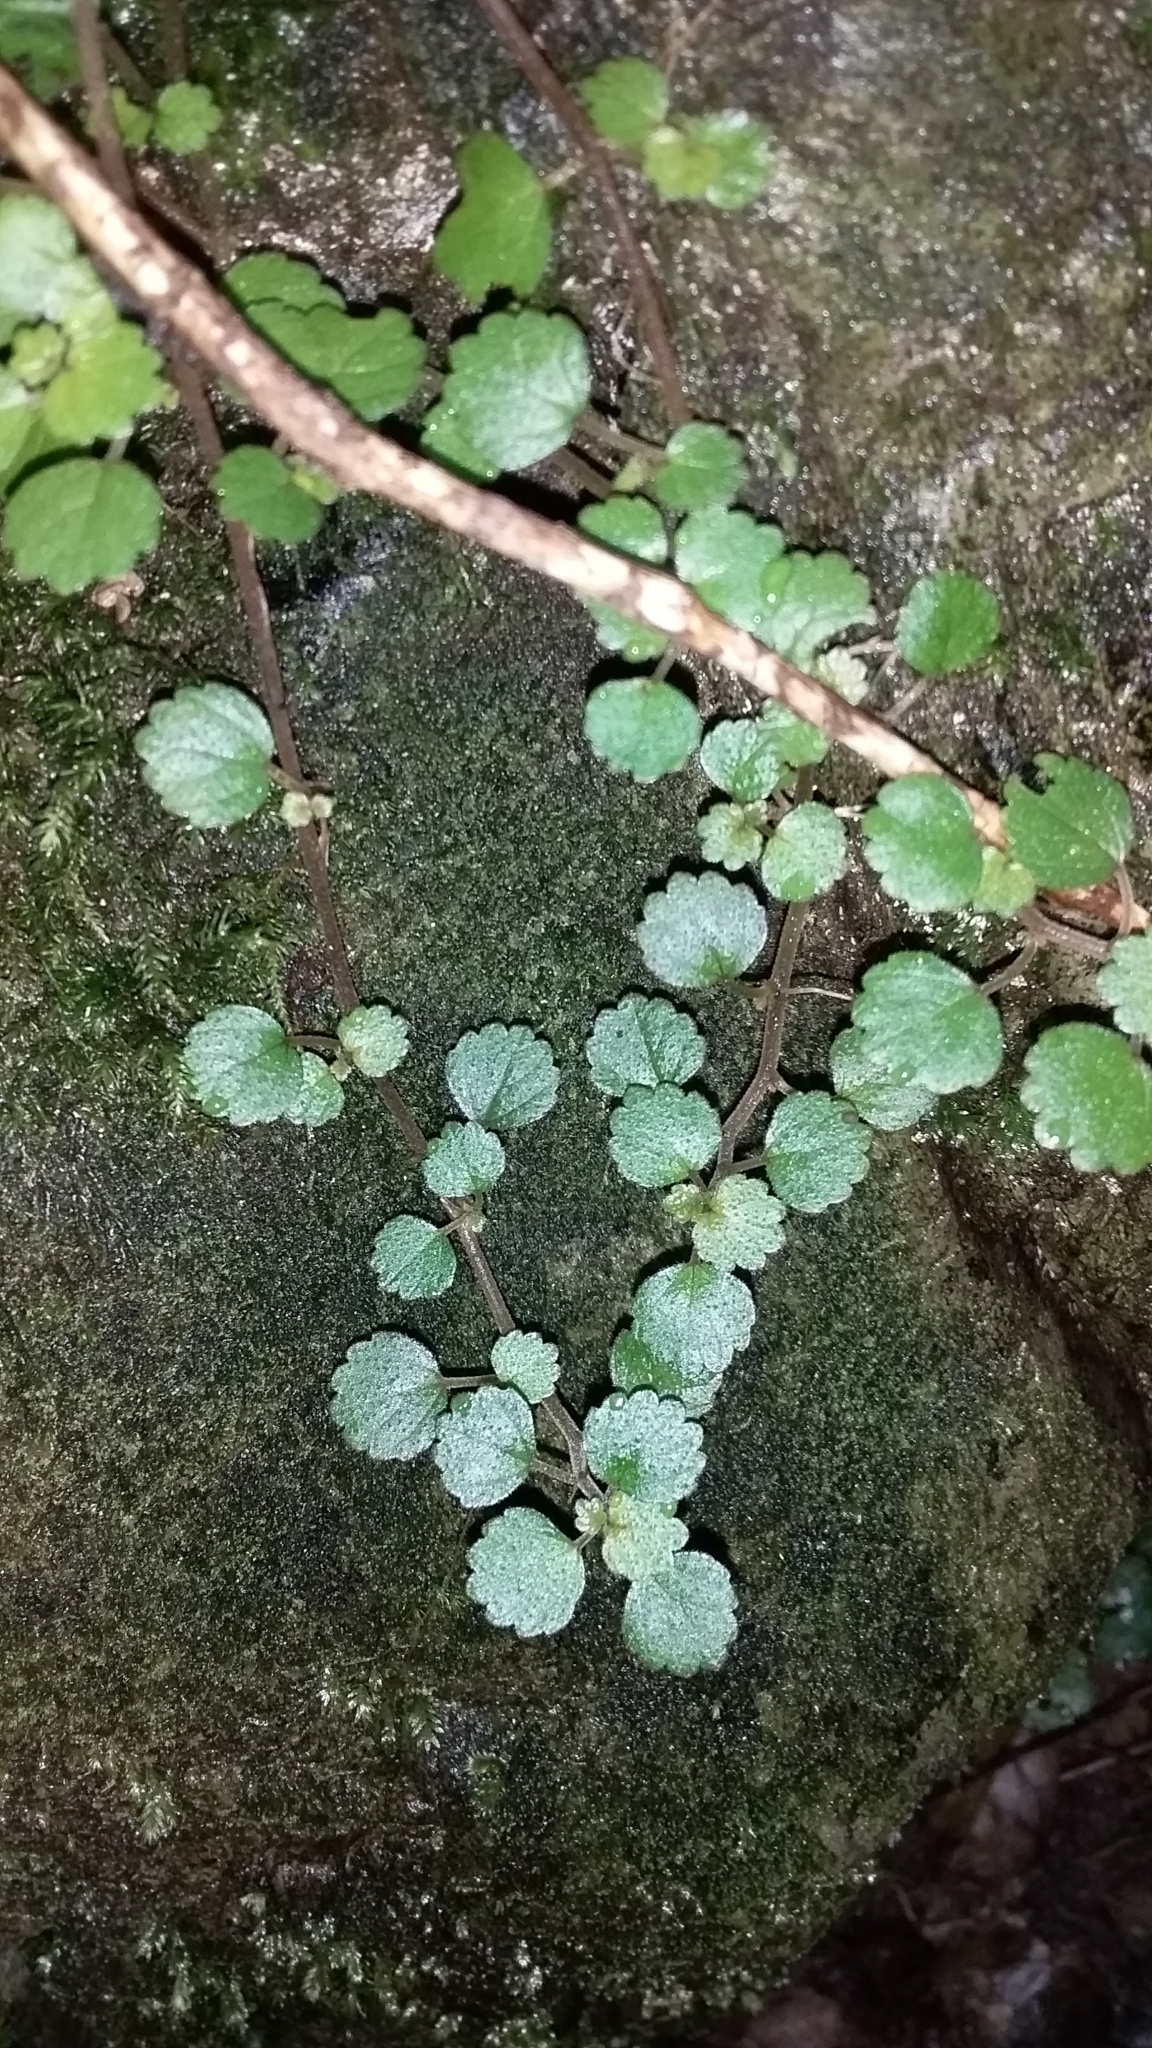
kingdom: Plantae
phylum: Tracheophyta
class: Magnoliopsida
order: Rosales
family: Urticaceae
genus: Australina
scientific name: Australina pusilla
